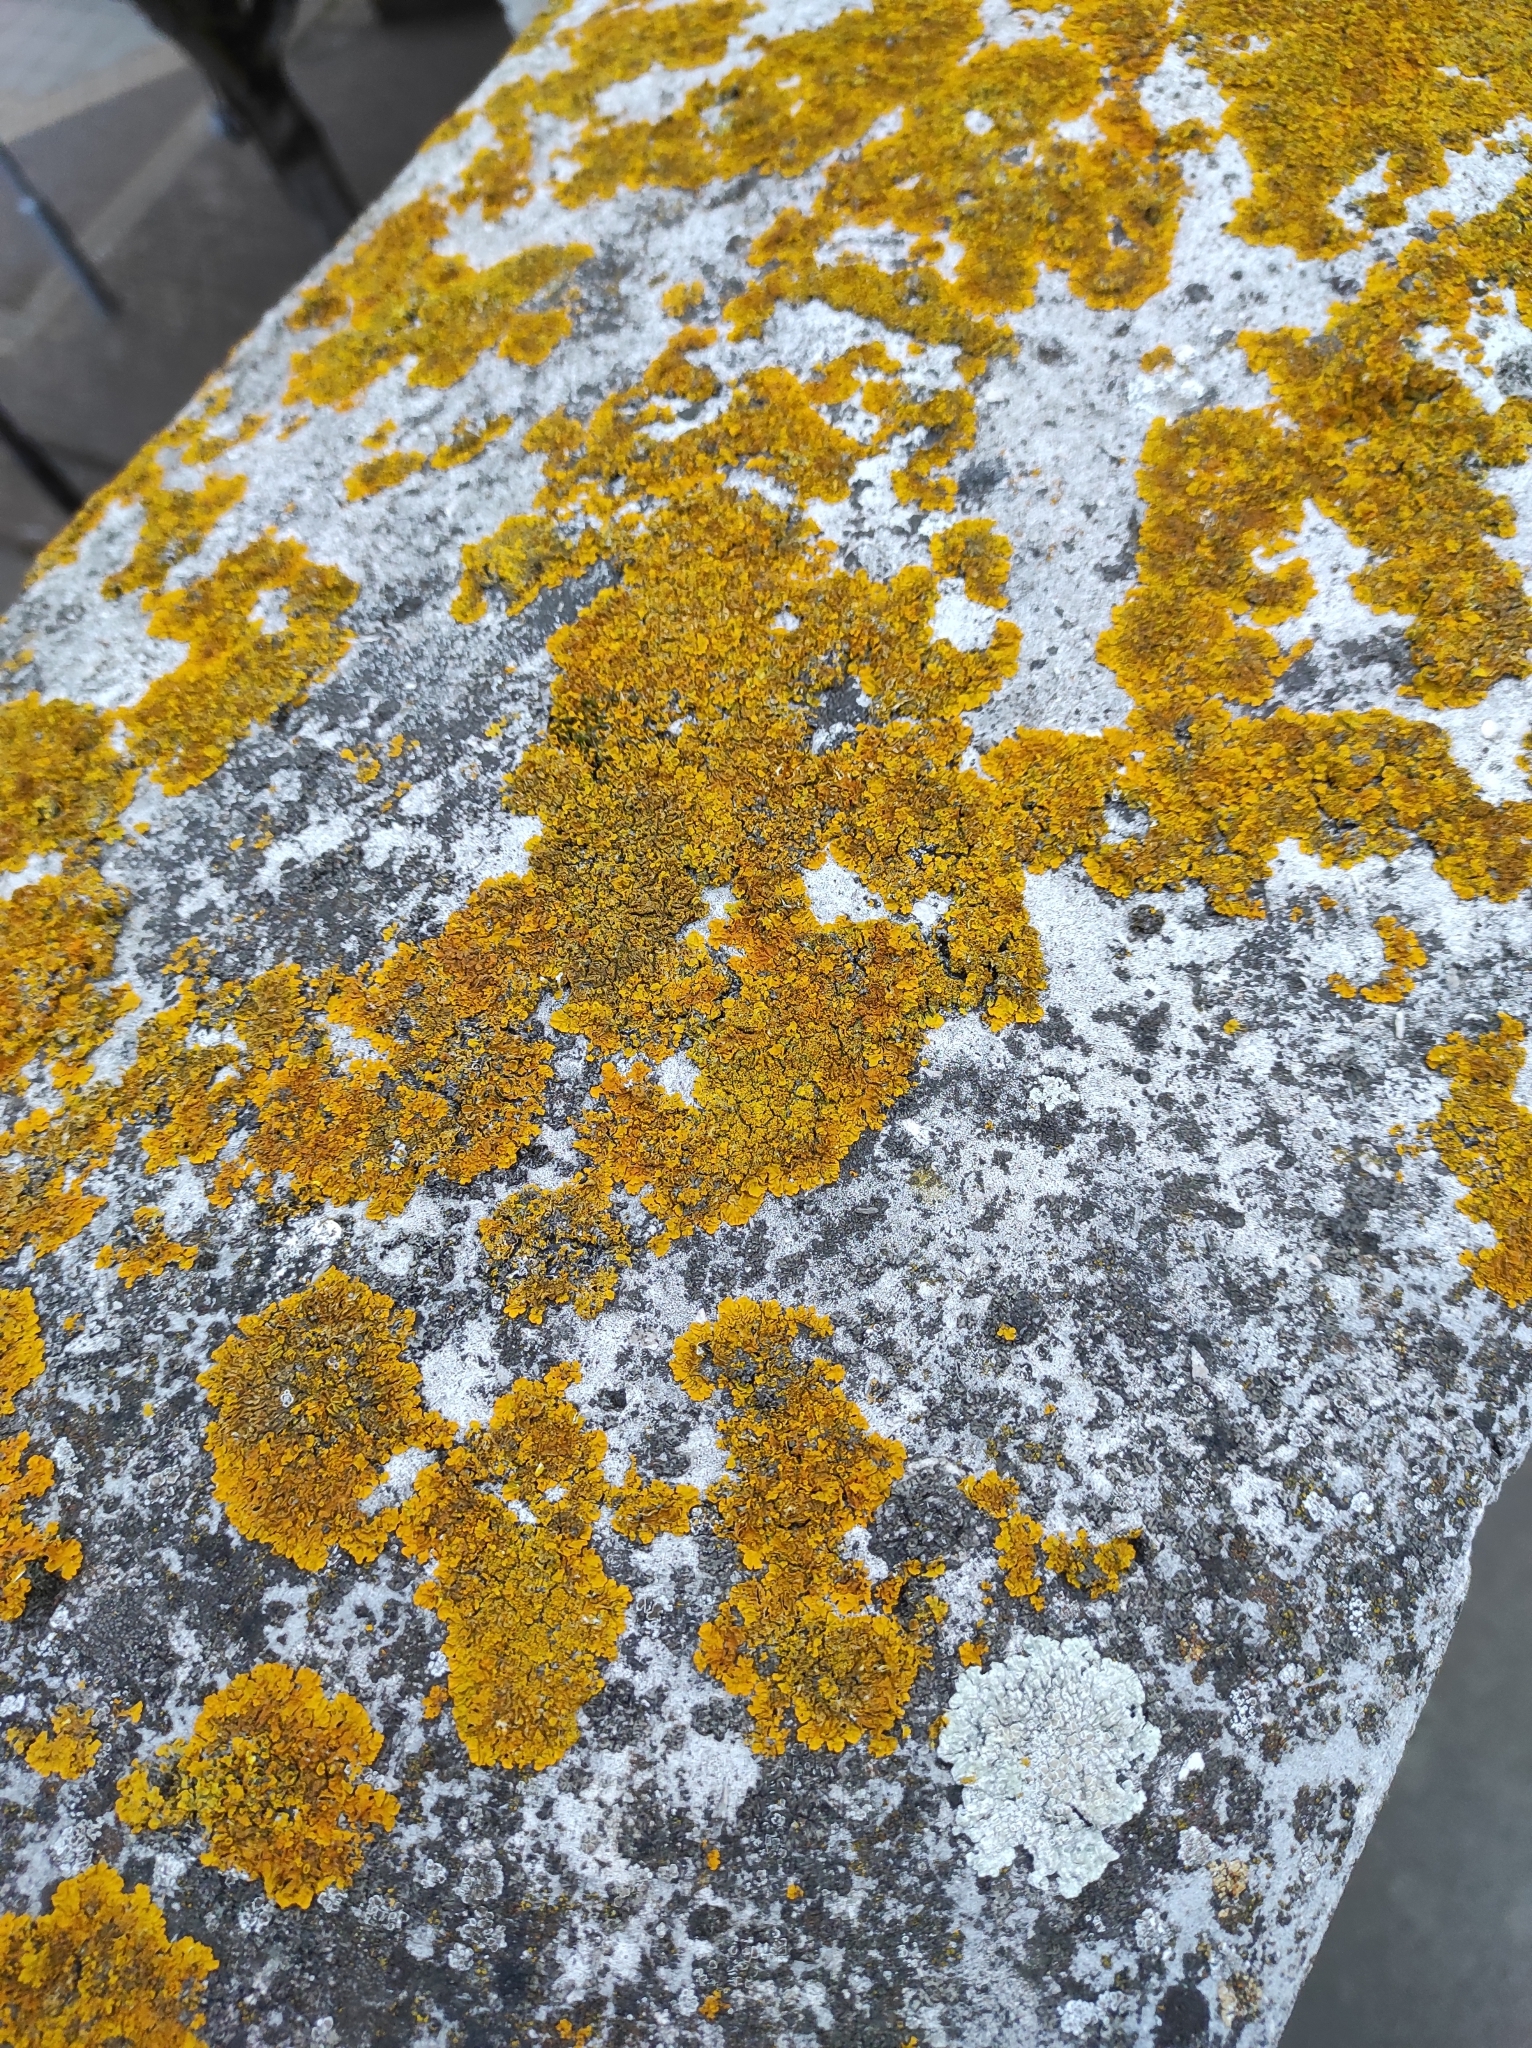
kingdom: Fungi
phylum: Ascomycota
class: Lecanoromycetes
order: Teloschistales
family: Teloschistaceae
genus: Xanthoria
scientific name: Xanthoria parietina
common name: Common orange lichen
